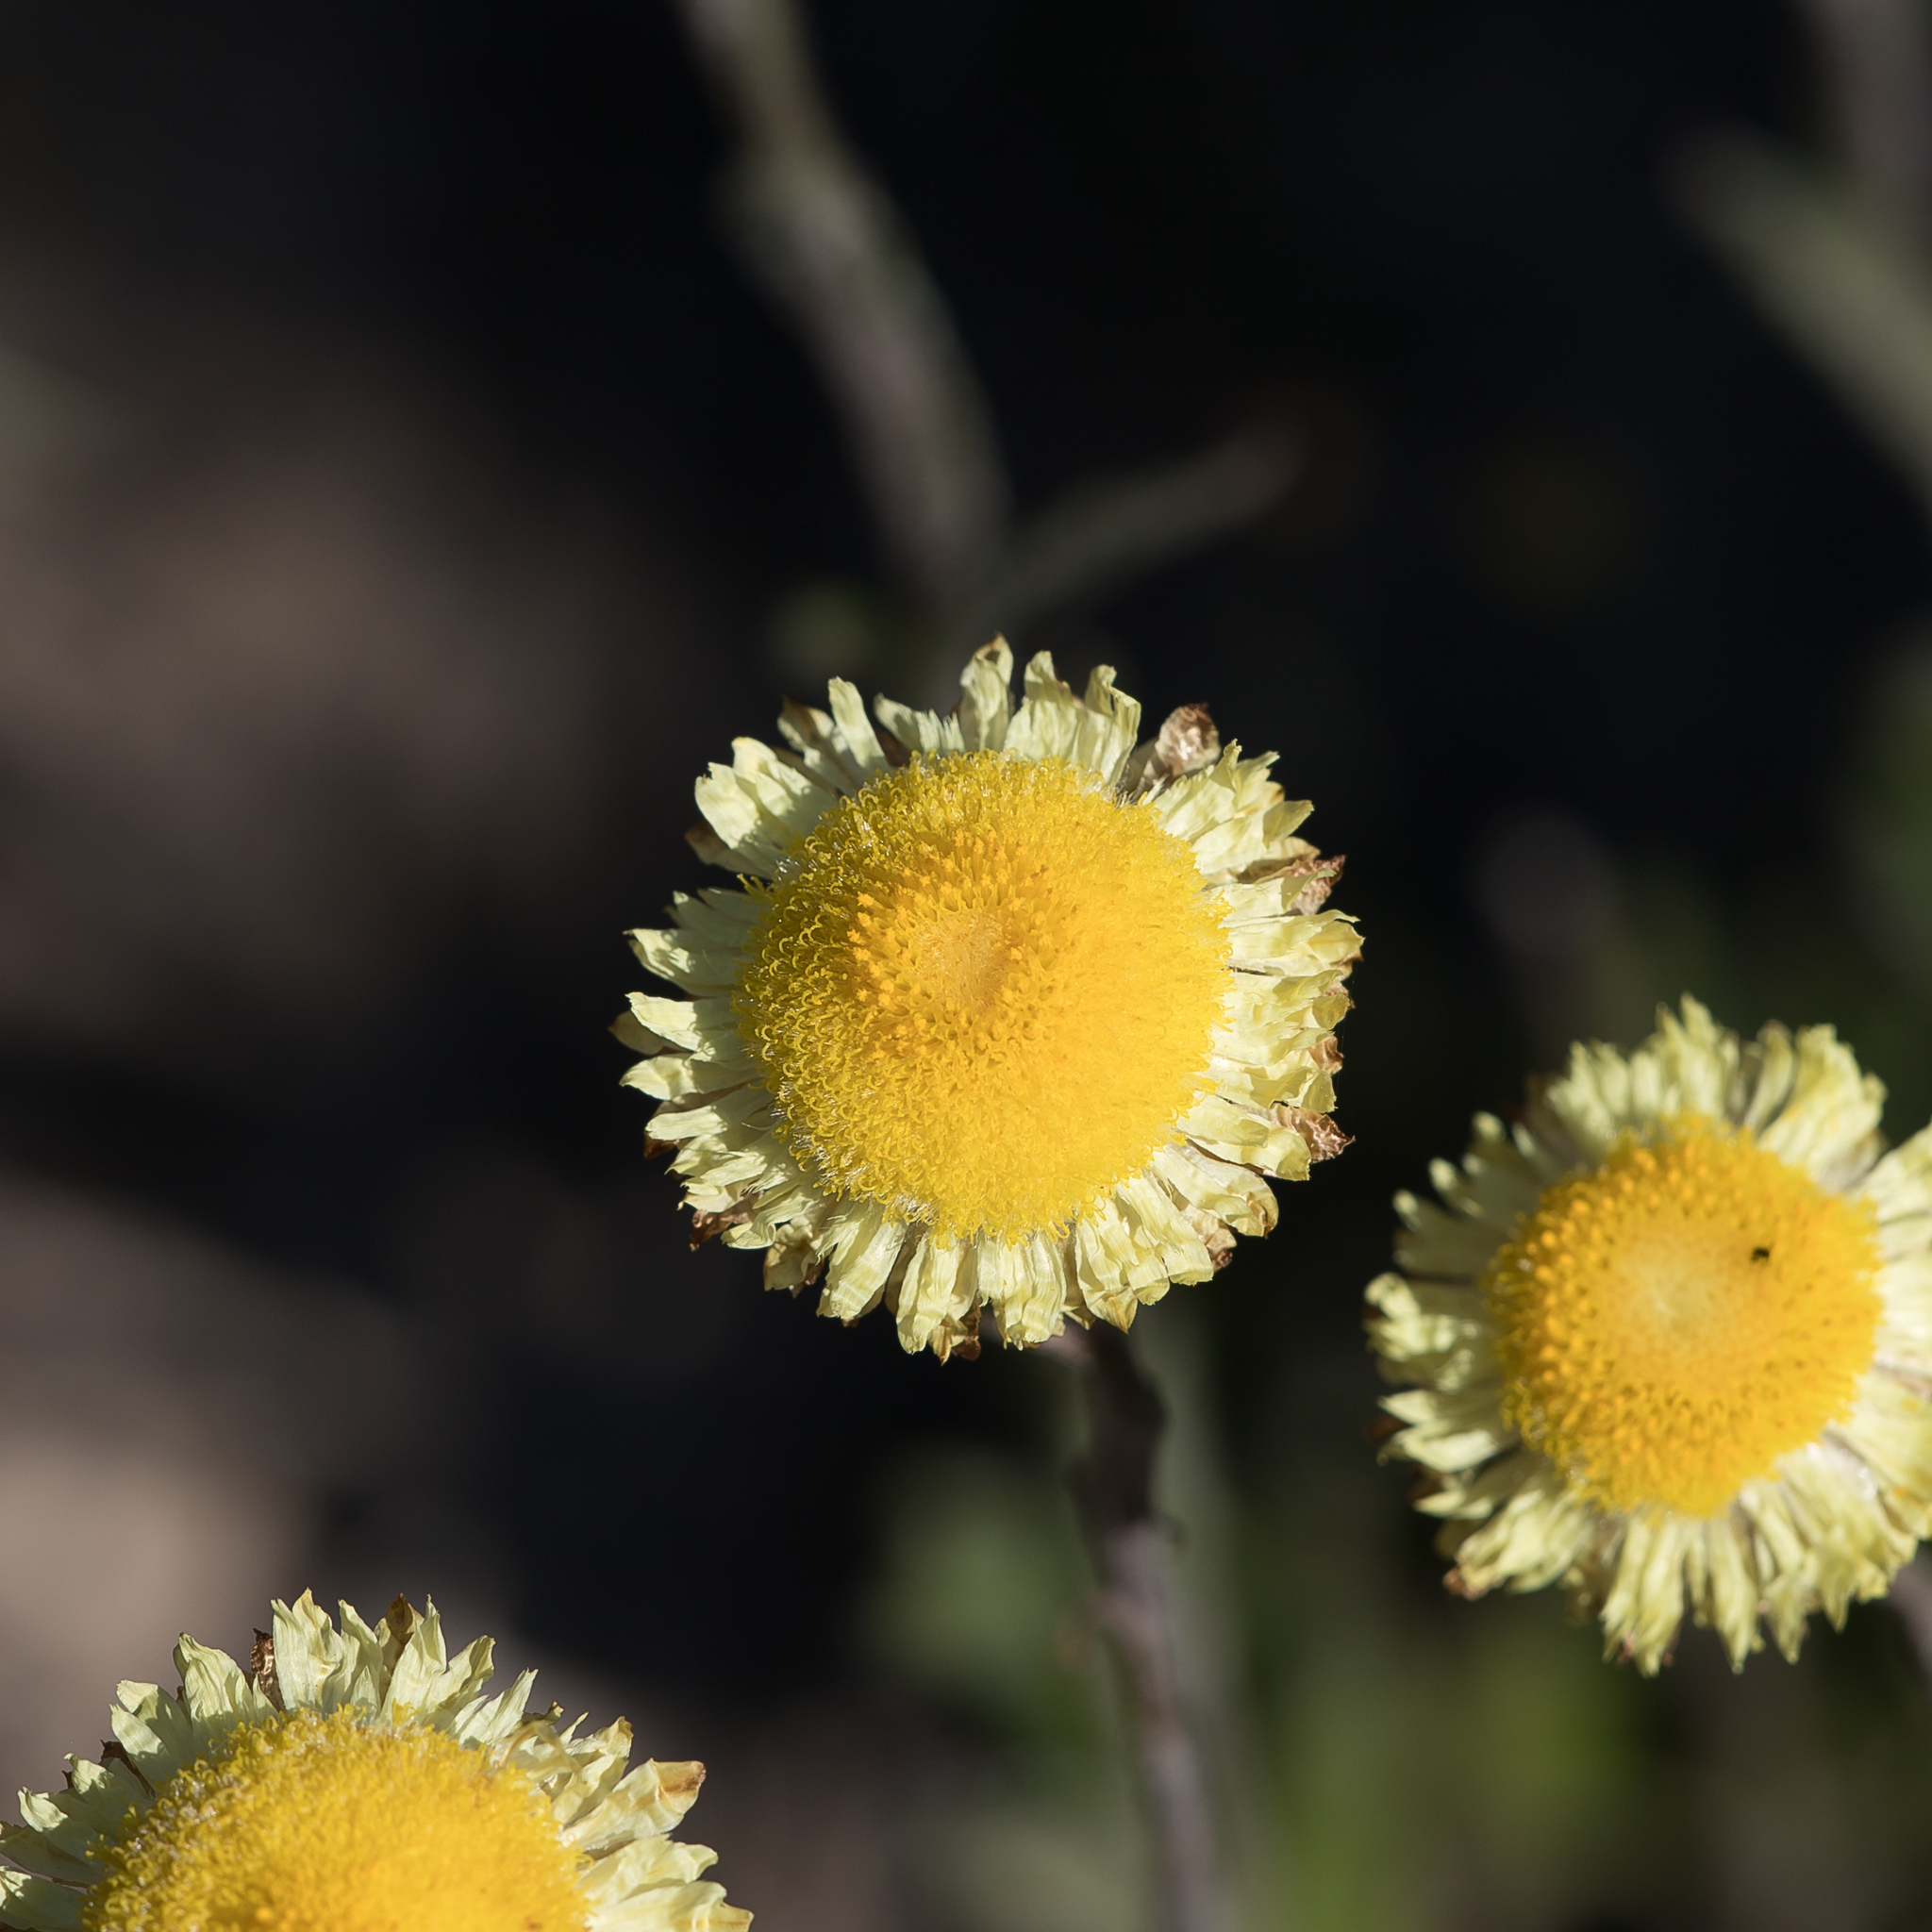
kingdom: Plantae
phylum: Tracheophyta
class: Magnoliopsida
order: Asterales
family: Asteraceae
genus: Coronidium
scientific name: Coronidium scorpioides
